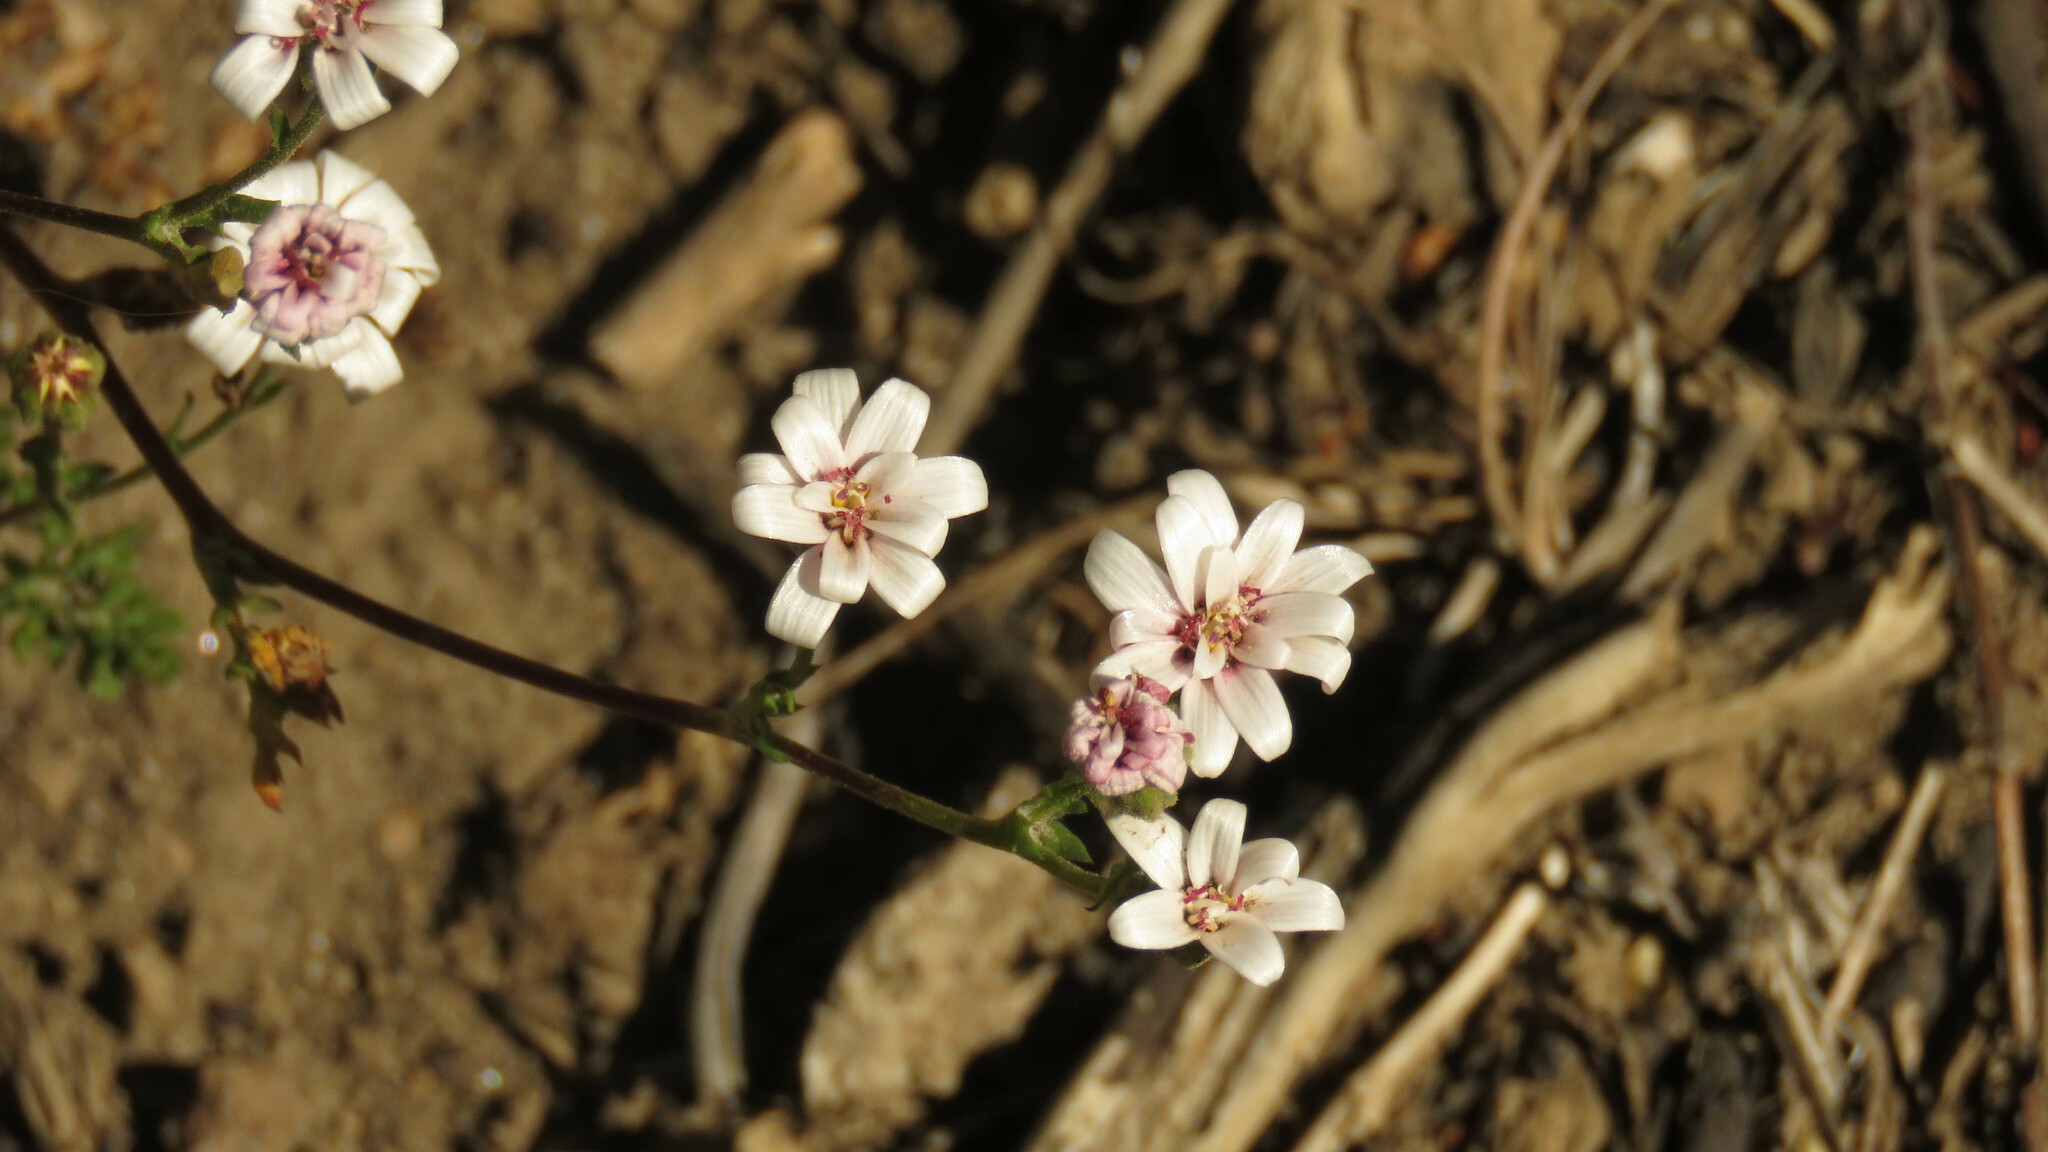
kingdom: Plantae
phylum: Tracheophyta
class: Magnoliopsida
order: Asterales
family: Asteraceae
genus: Leucheria
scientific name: Leucheria achillaeifolia
